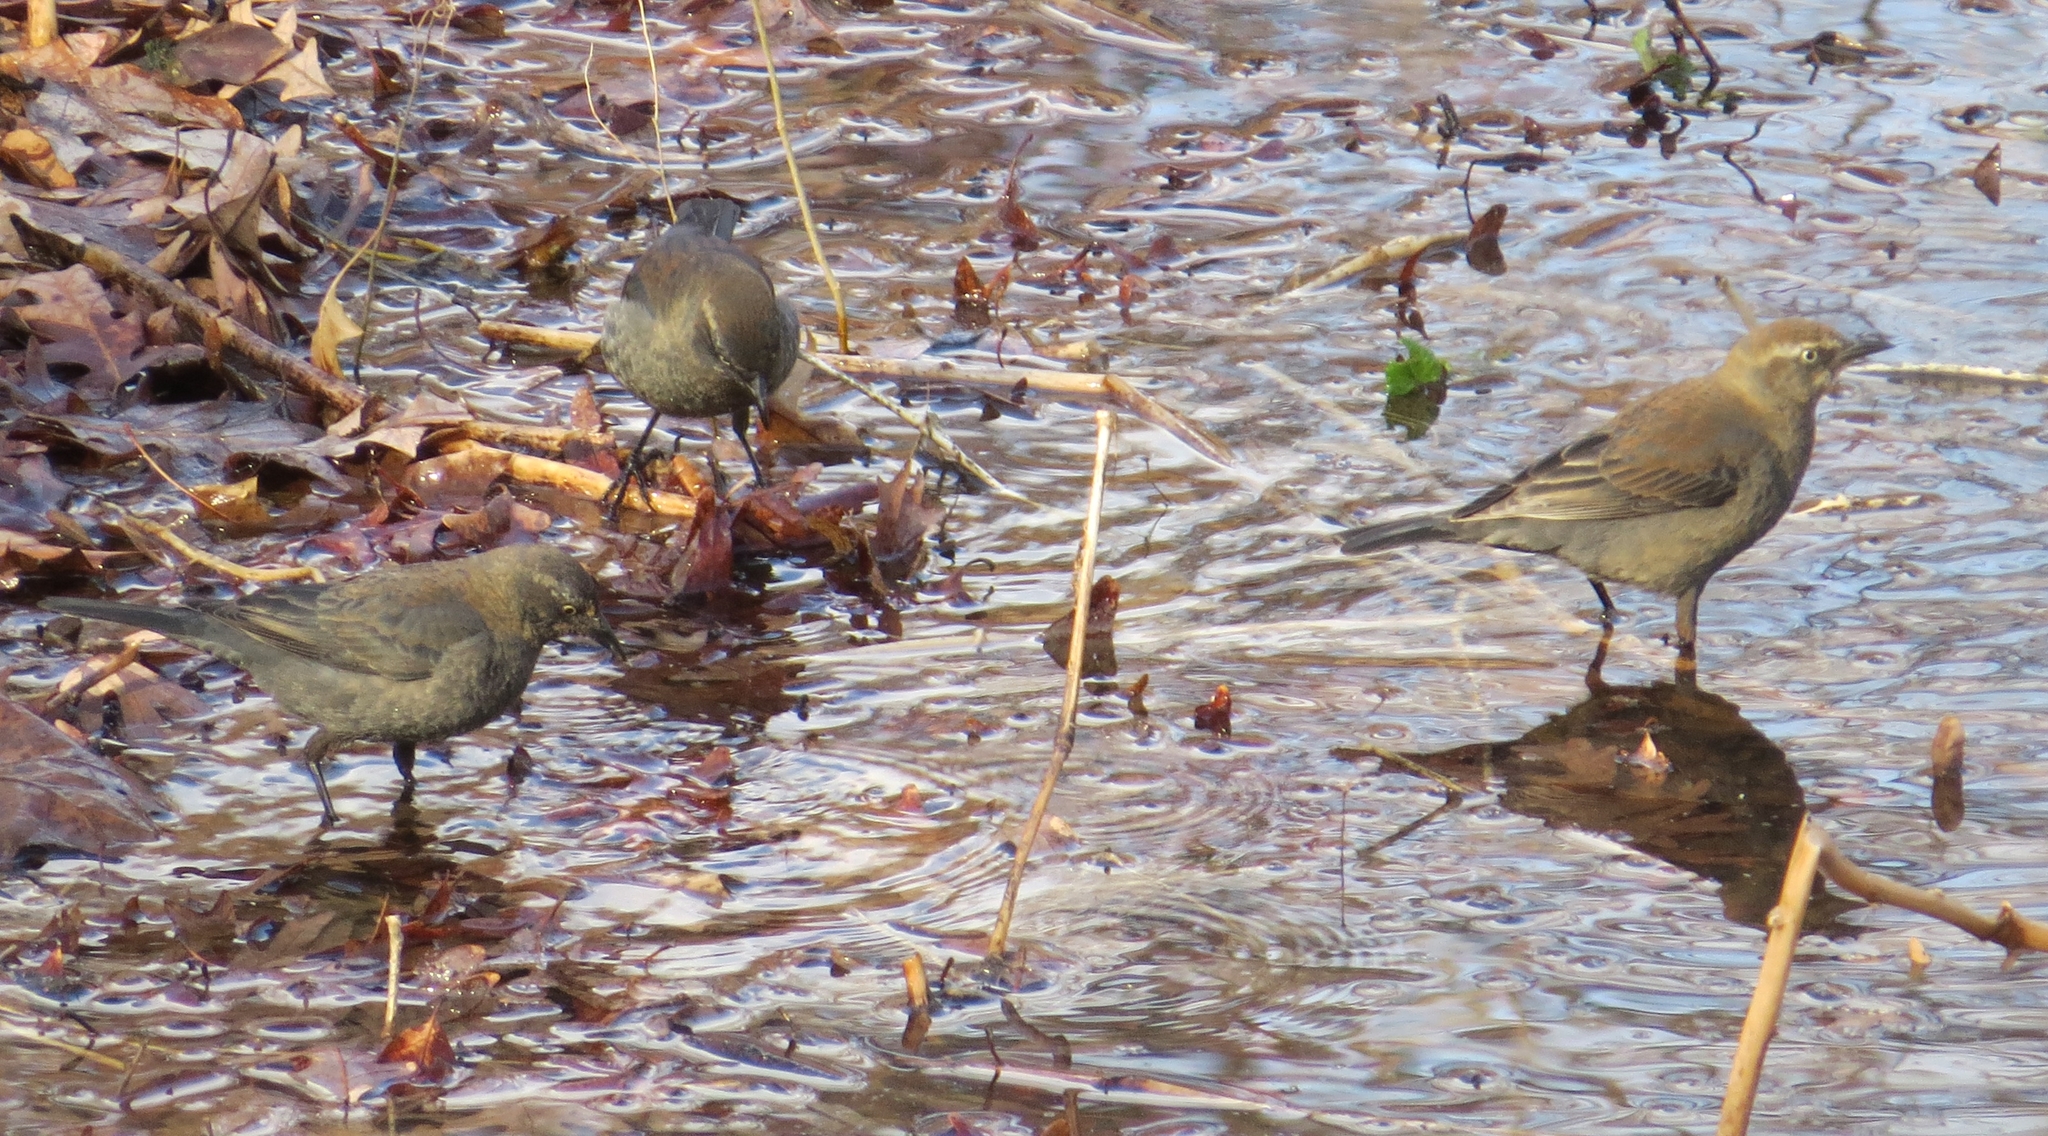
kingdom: Animalia
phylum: Chordata
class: Aves
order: Passeriformes
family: Icteridae
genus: Euphagus
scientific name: Euphagus carolinus
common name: Rusty blackbird
